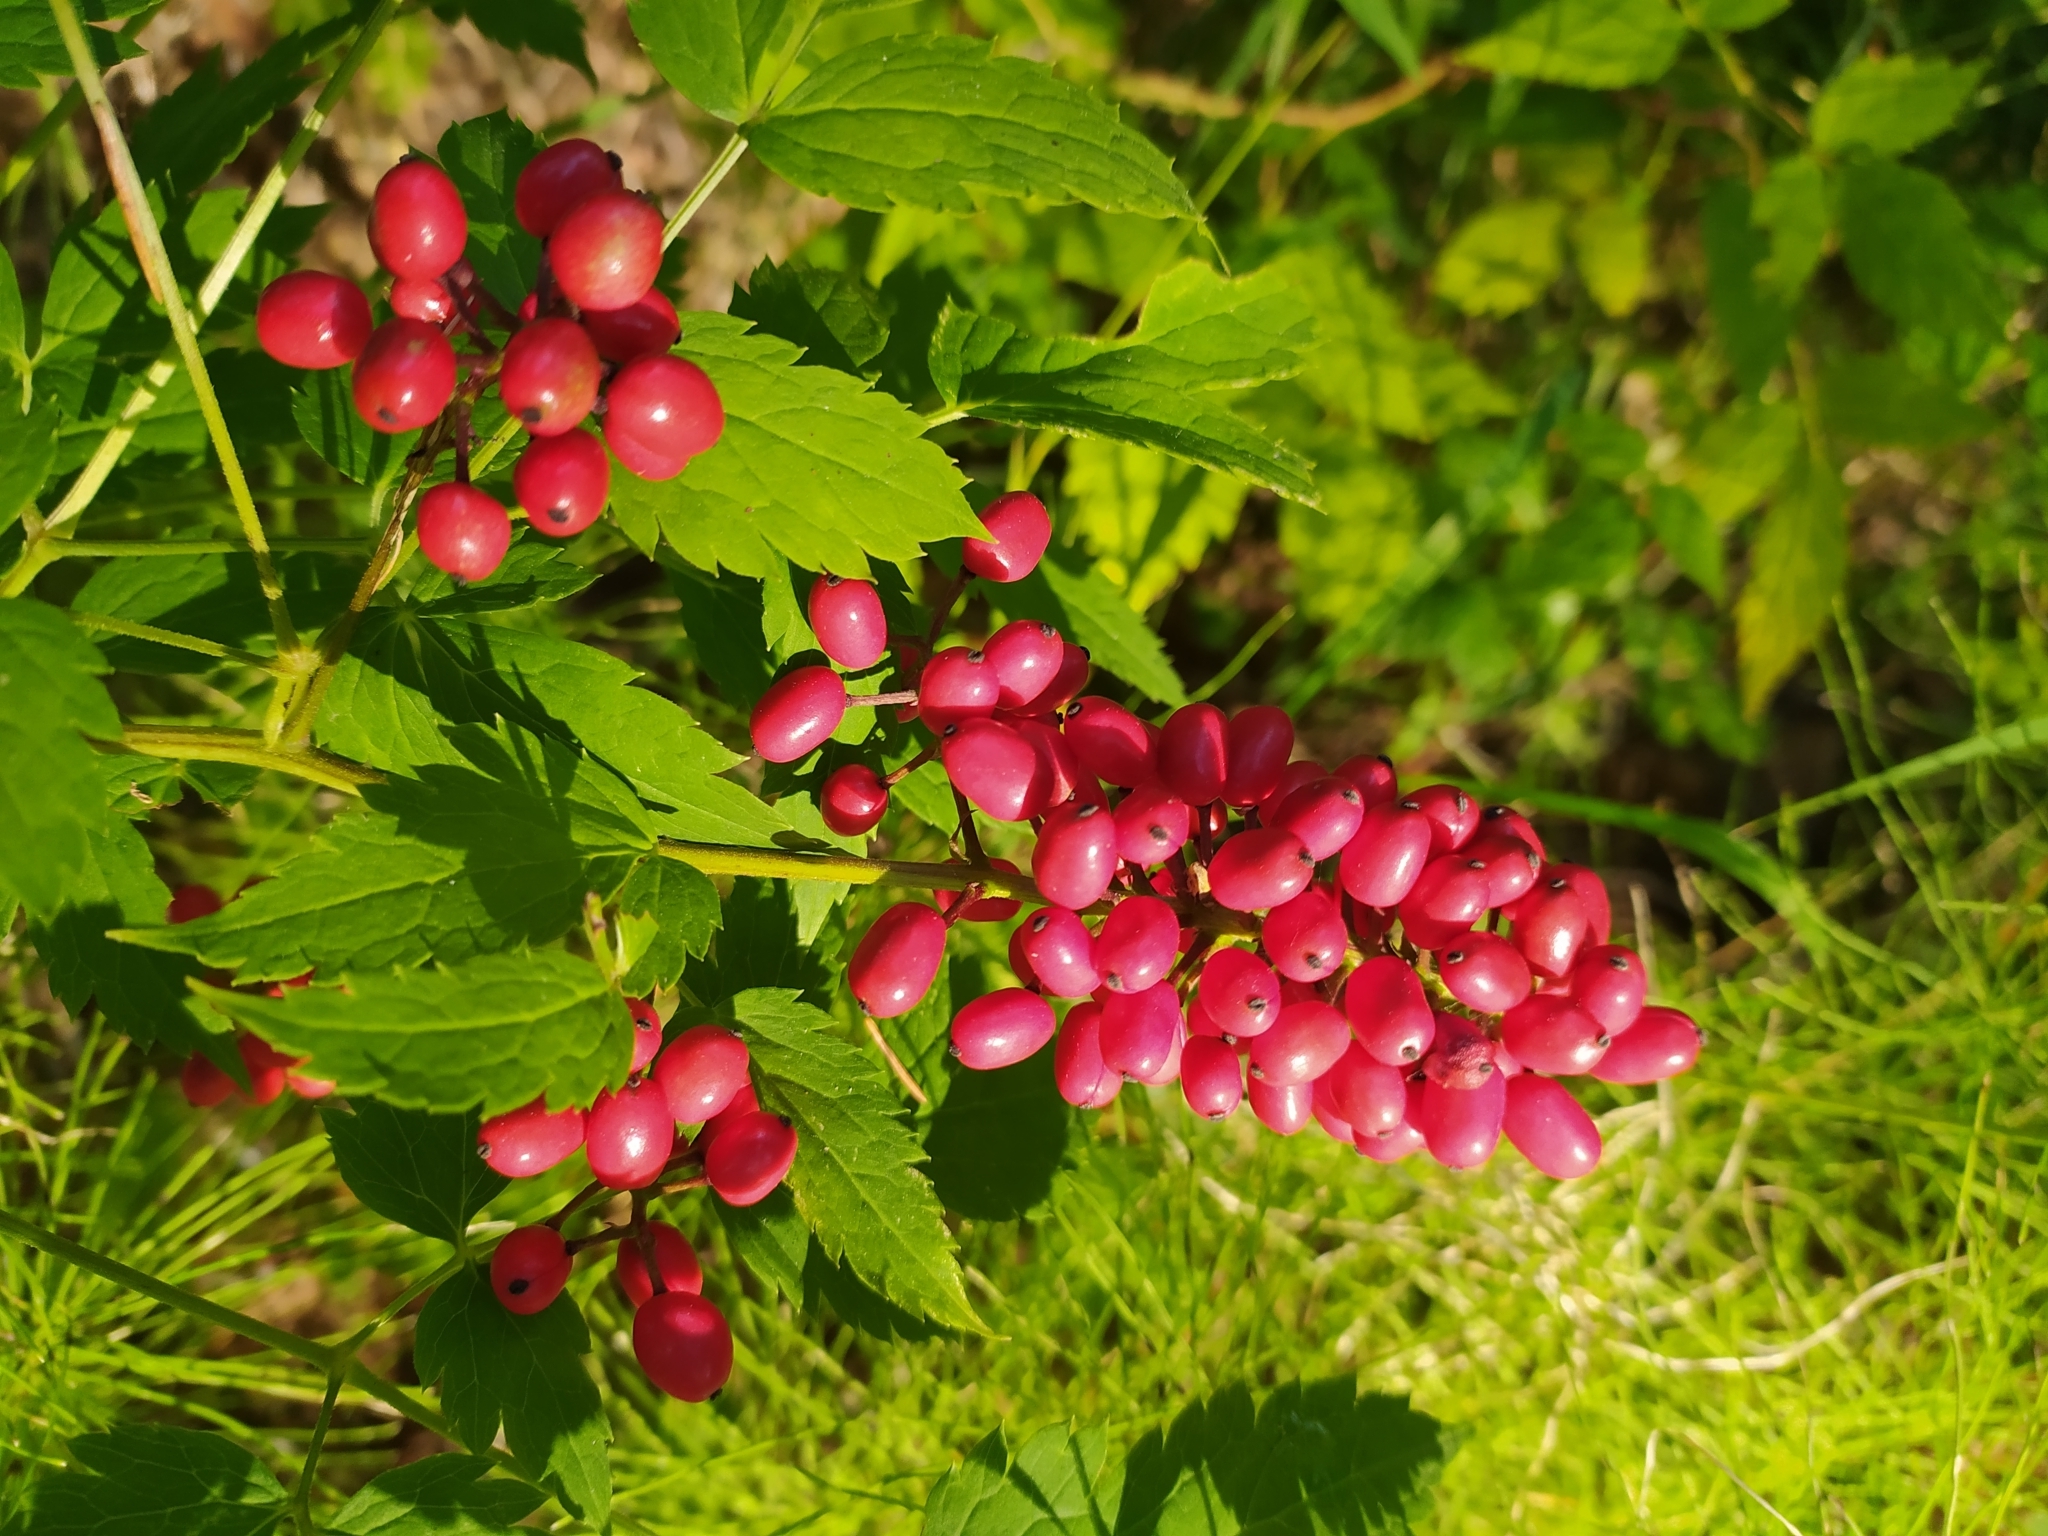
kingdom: Plantae
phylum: Tracheophyta
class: Magnoliopsida
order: Ranunculales
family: Ranunculaceae
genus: Actaea
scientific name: Actaea erythrocarpa
